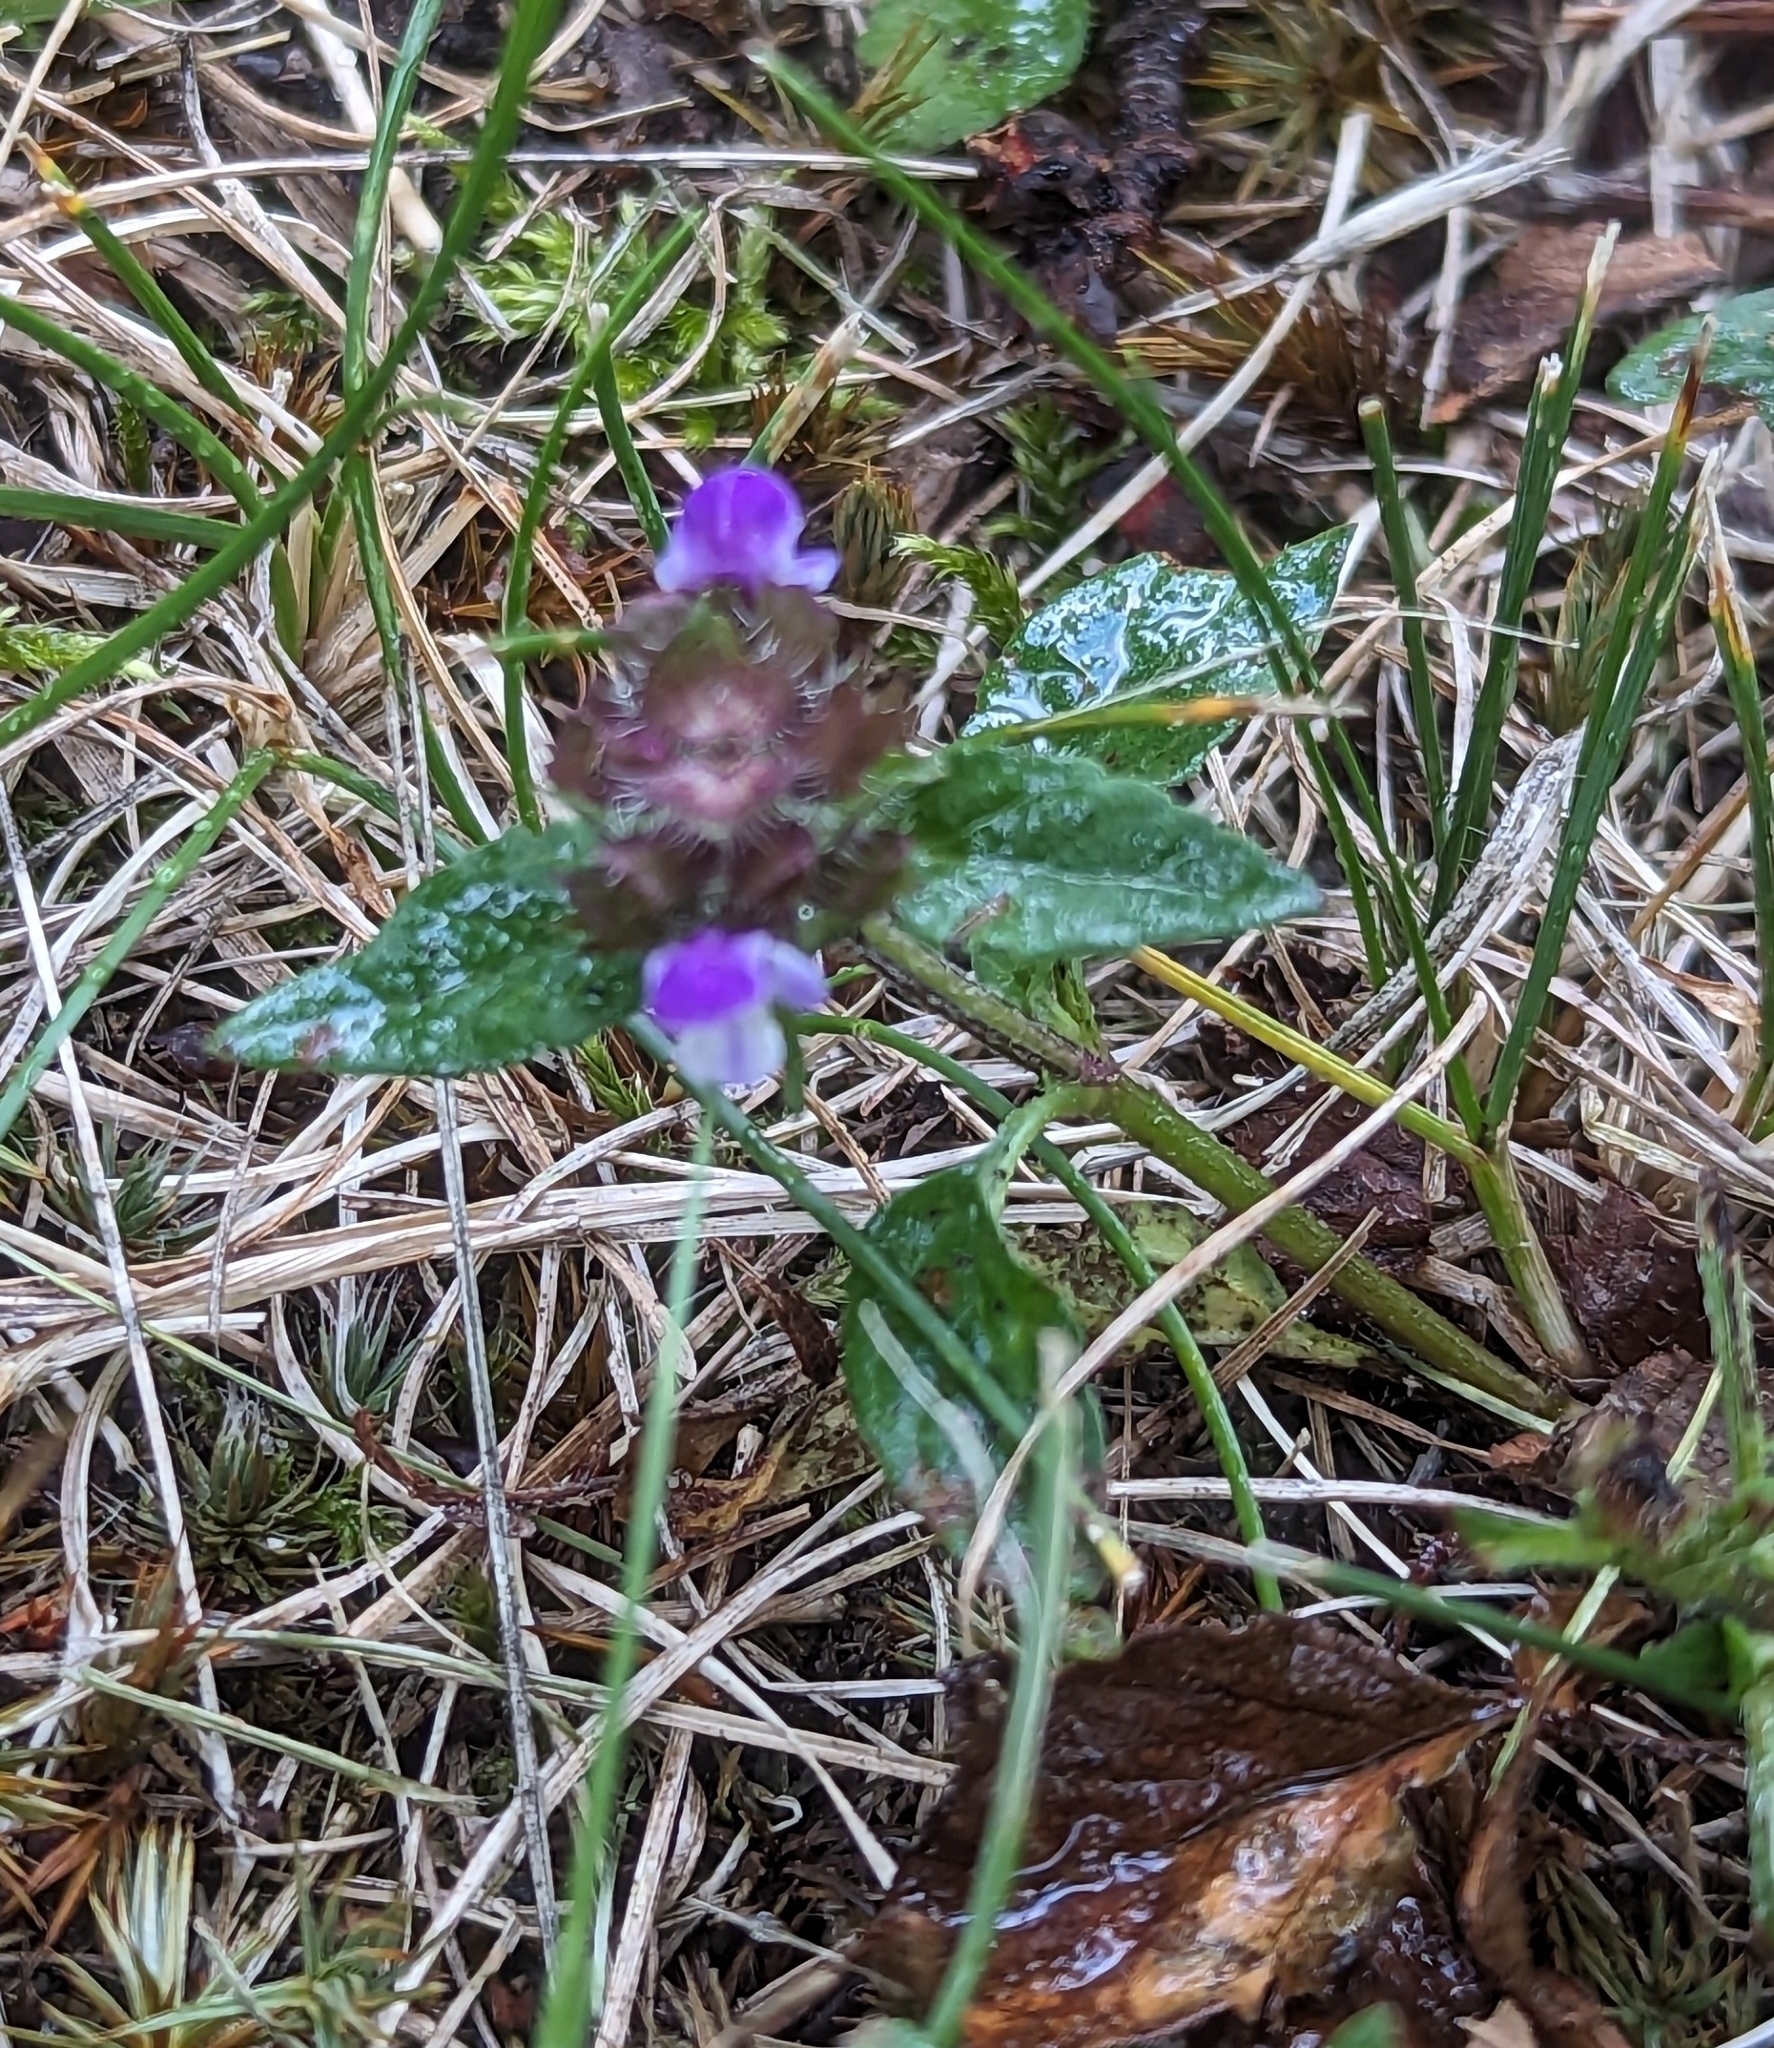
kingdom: Plantae
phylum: Tracheophyta
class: Magnoliopsida
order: Lamiales
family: Lamiaceae
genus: Prunella
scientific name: Prunella vulgaris
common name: Heal-all
